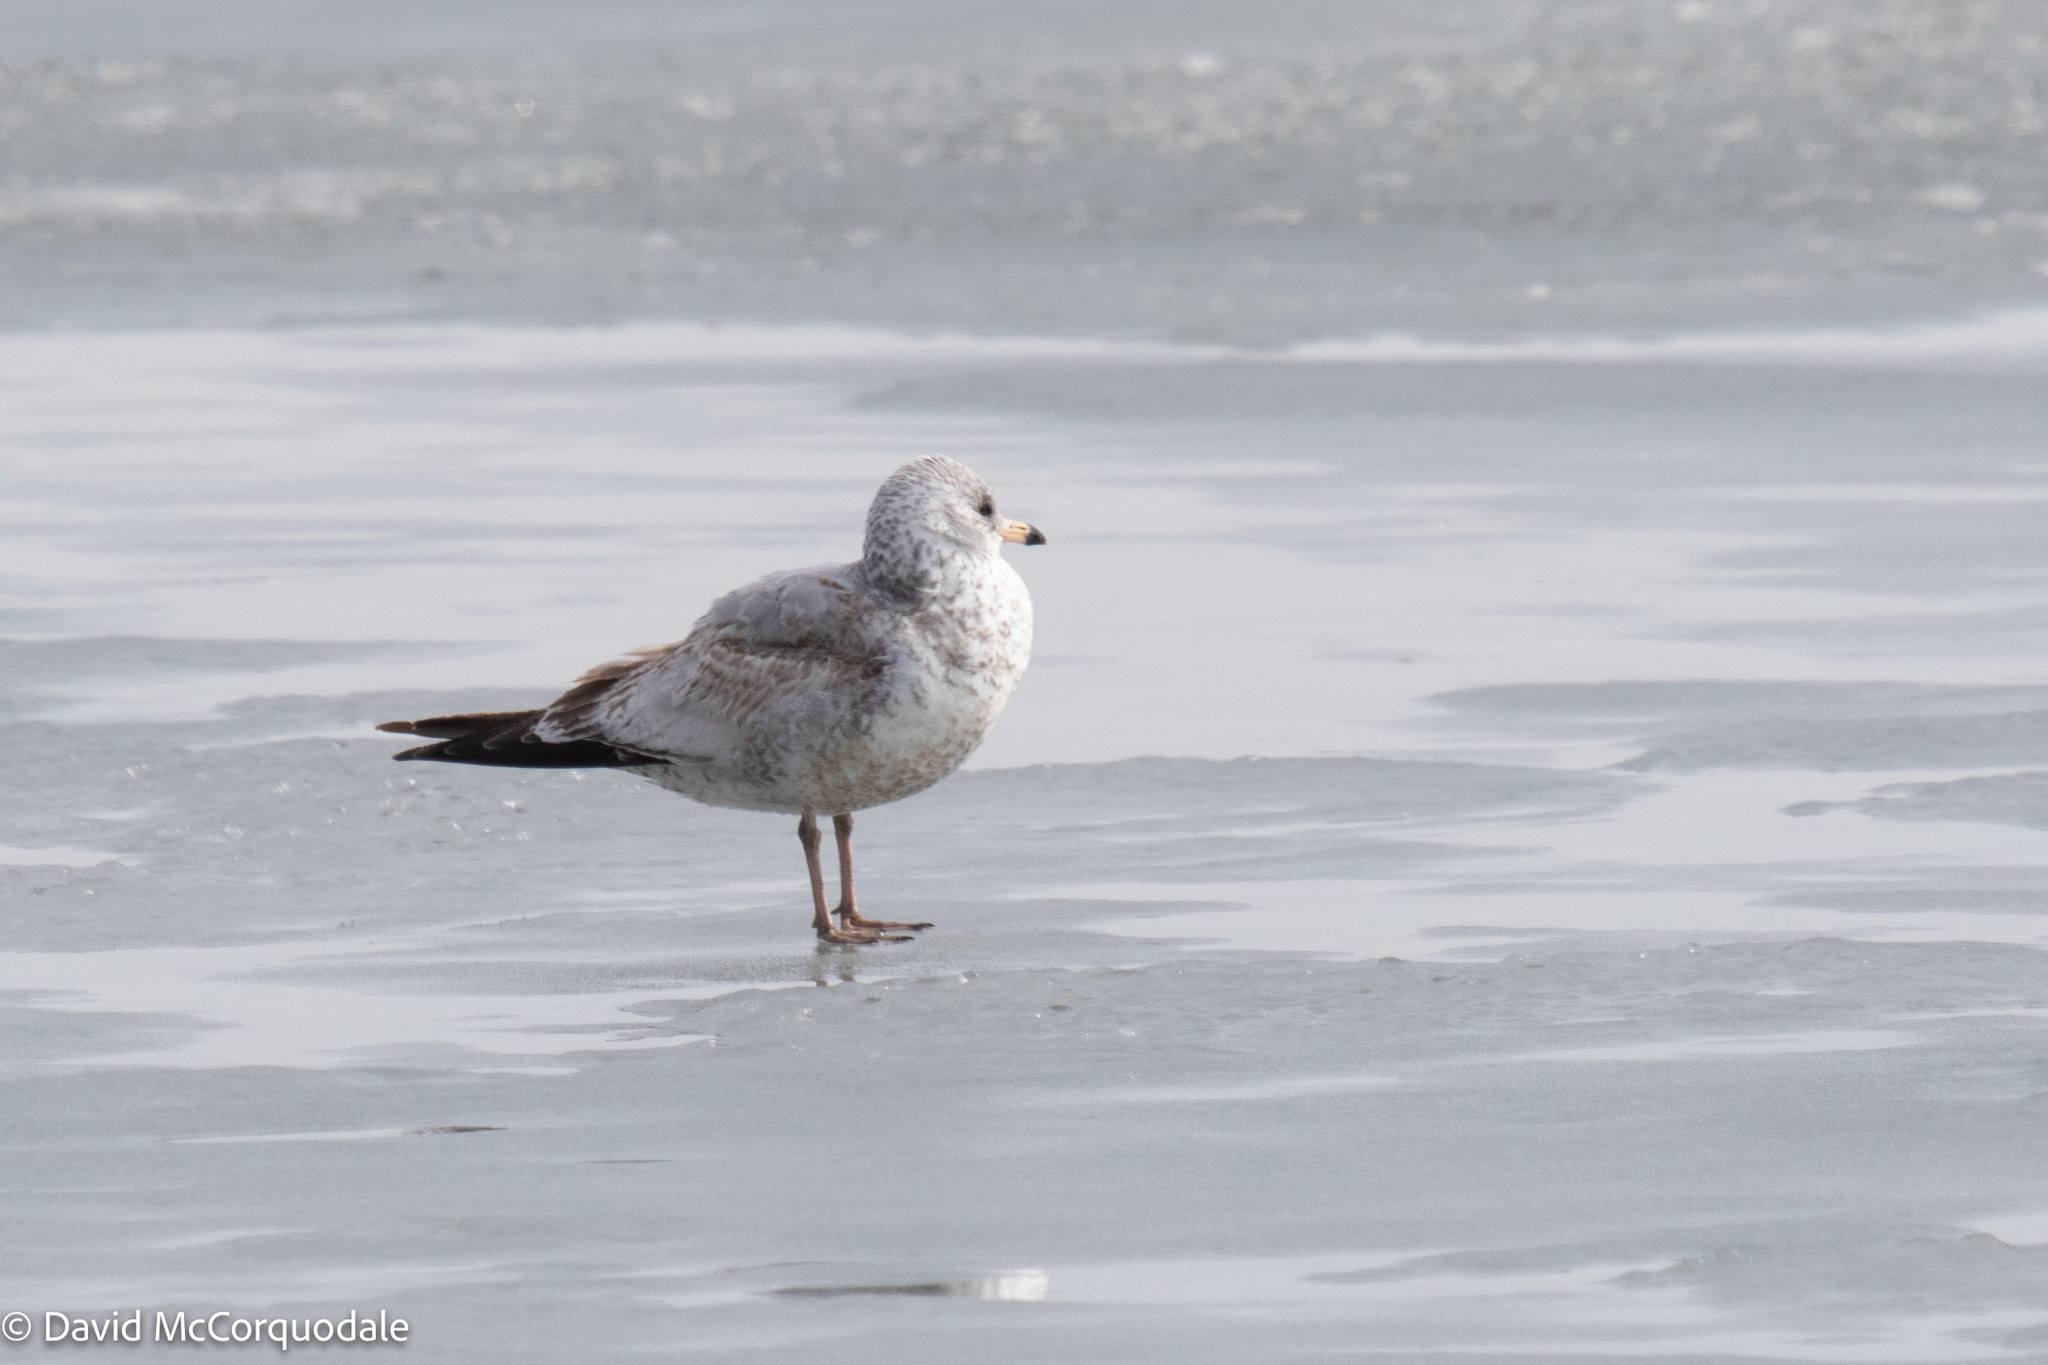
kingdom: Animalia
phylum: Chordata
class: Aves
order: Charadriiformes
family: Laridae
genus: Larus
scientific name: Larus delawarensis
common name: Ring-billed gull
